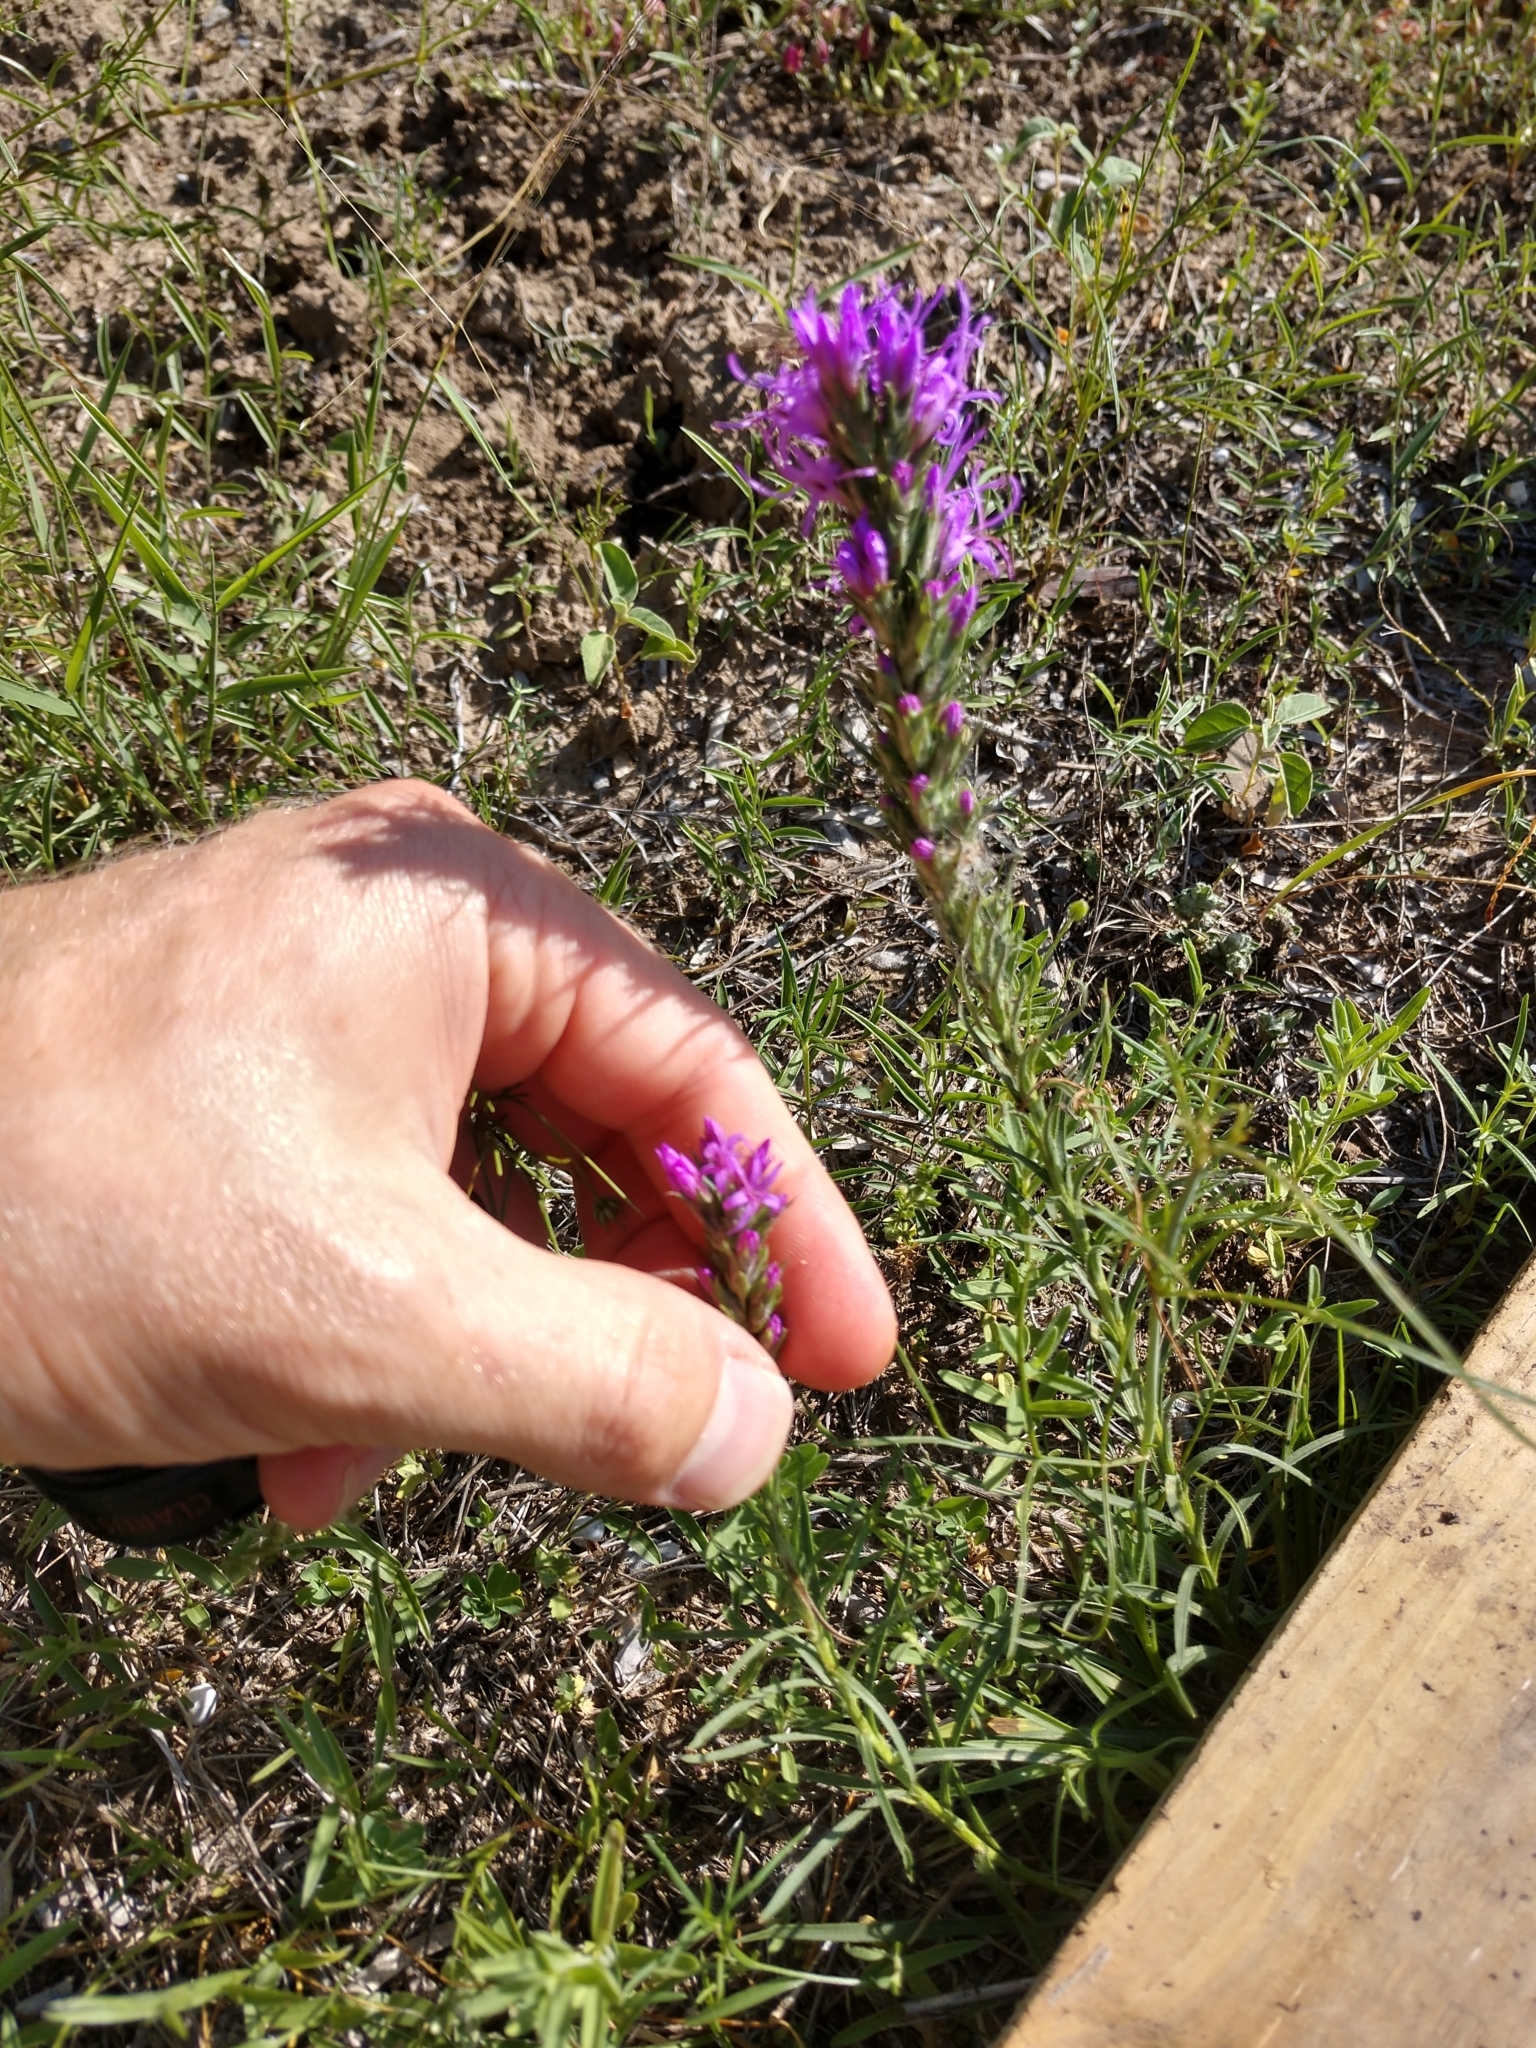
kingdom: Plantae
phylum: Tracheophyta
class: Magnoliopsida
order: Asterales
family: Asteraceae
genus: Liatris
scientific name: Liatris punctata
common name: Dotted gayfeather
